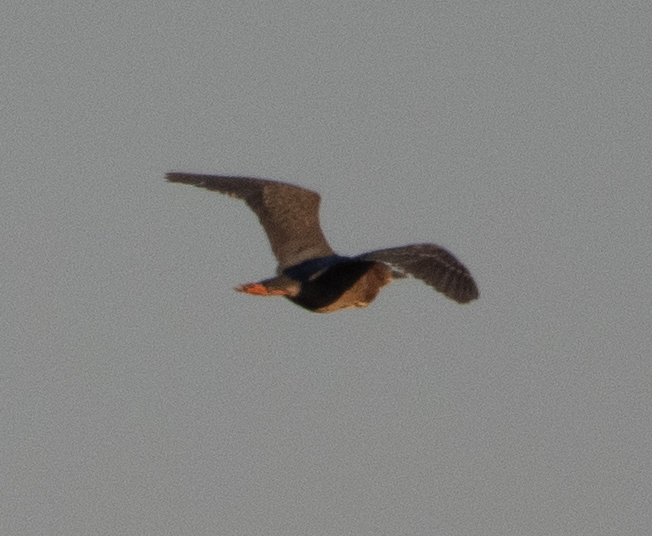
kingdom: Animalia
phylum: Chordata
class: Aves
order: Pelecaniformes
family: Ardeidae
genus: Butorides
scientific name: Butorides virescens
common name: Green heron
